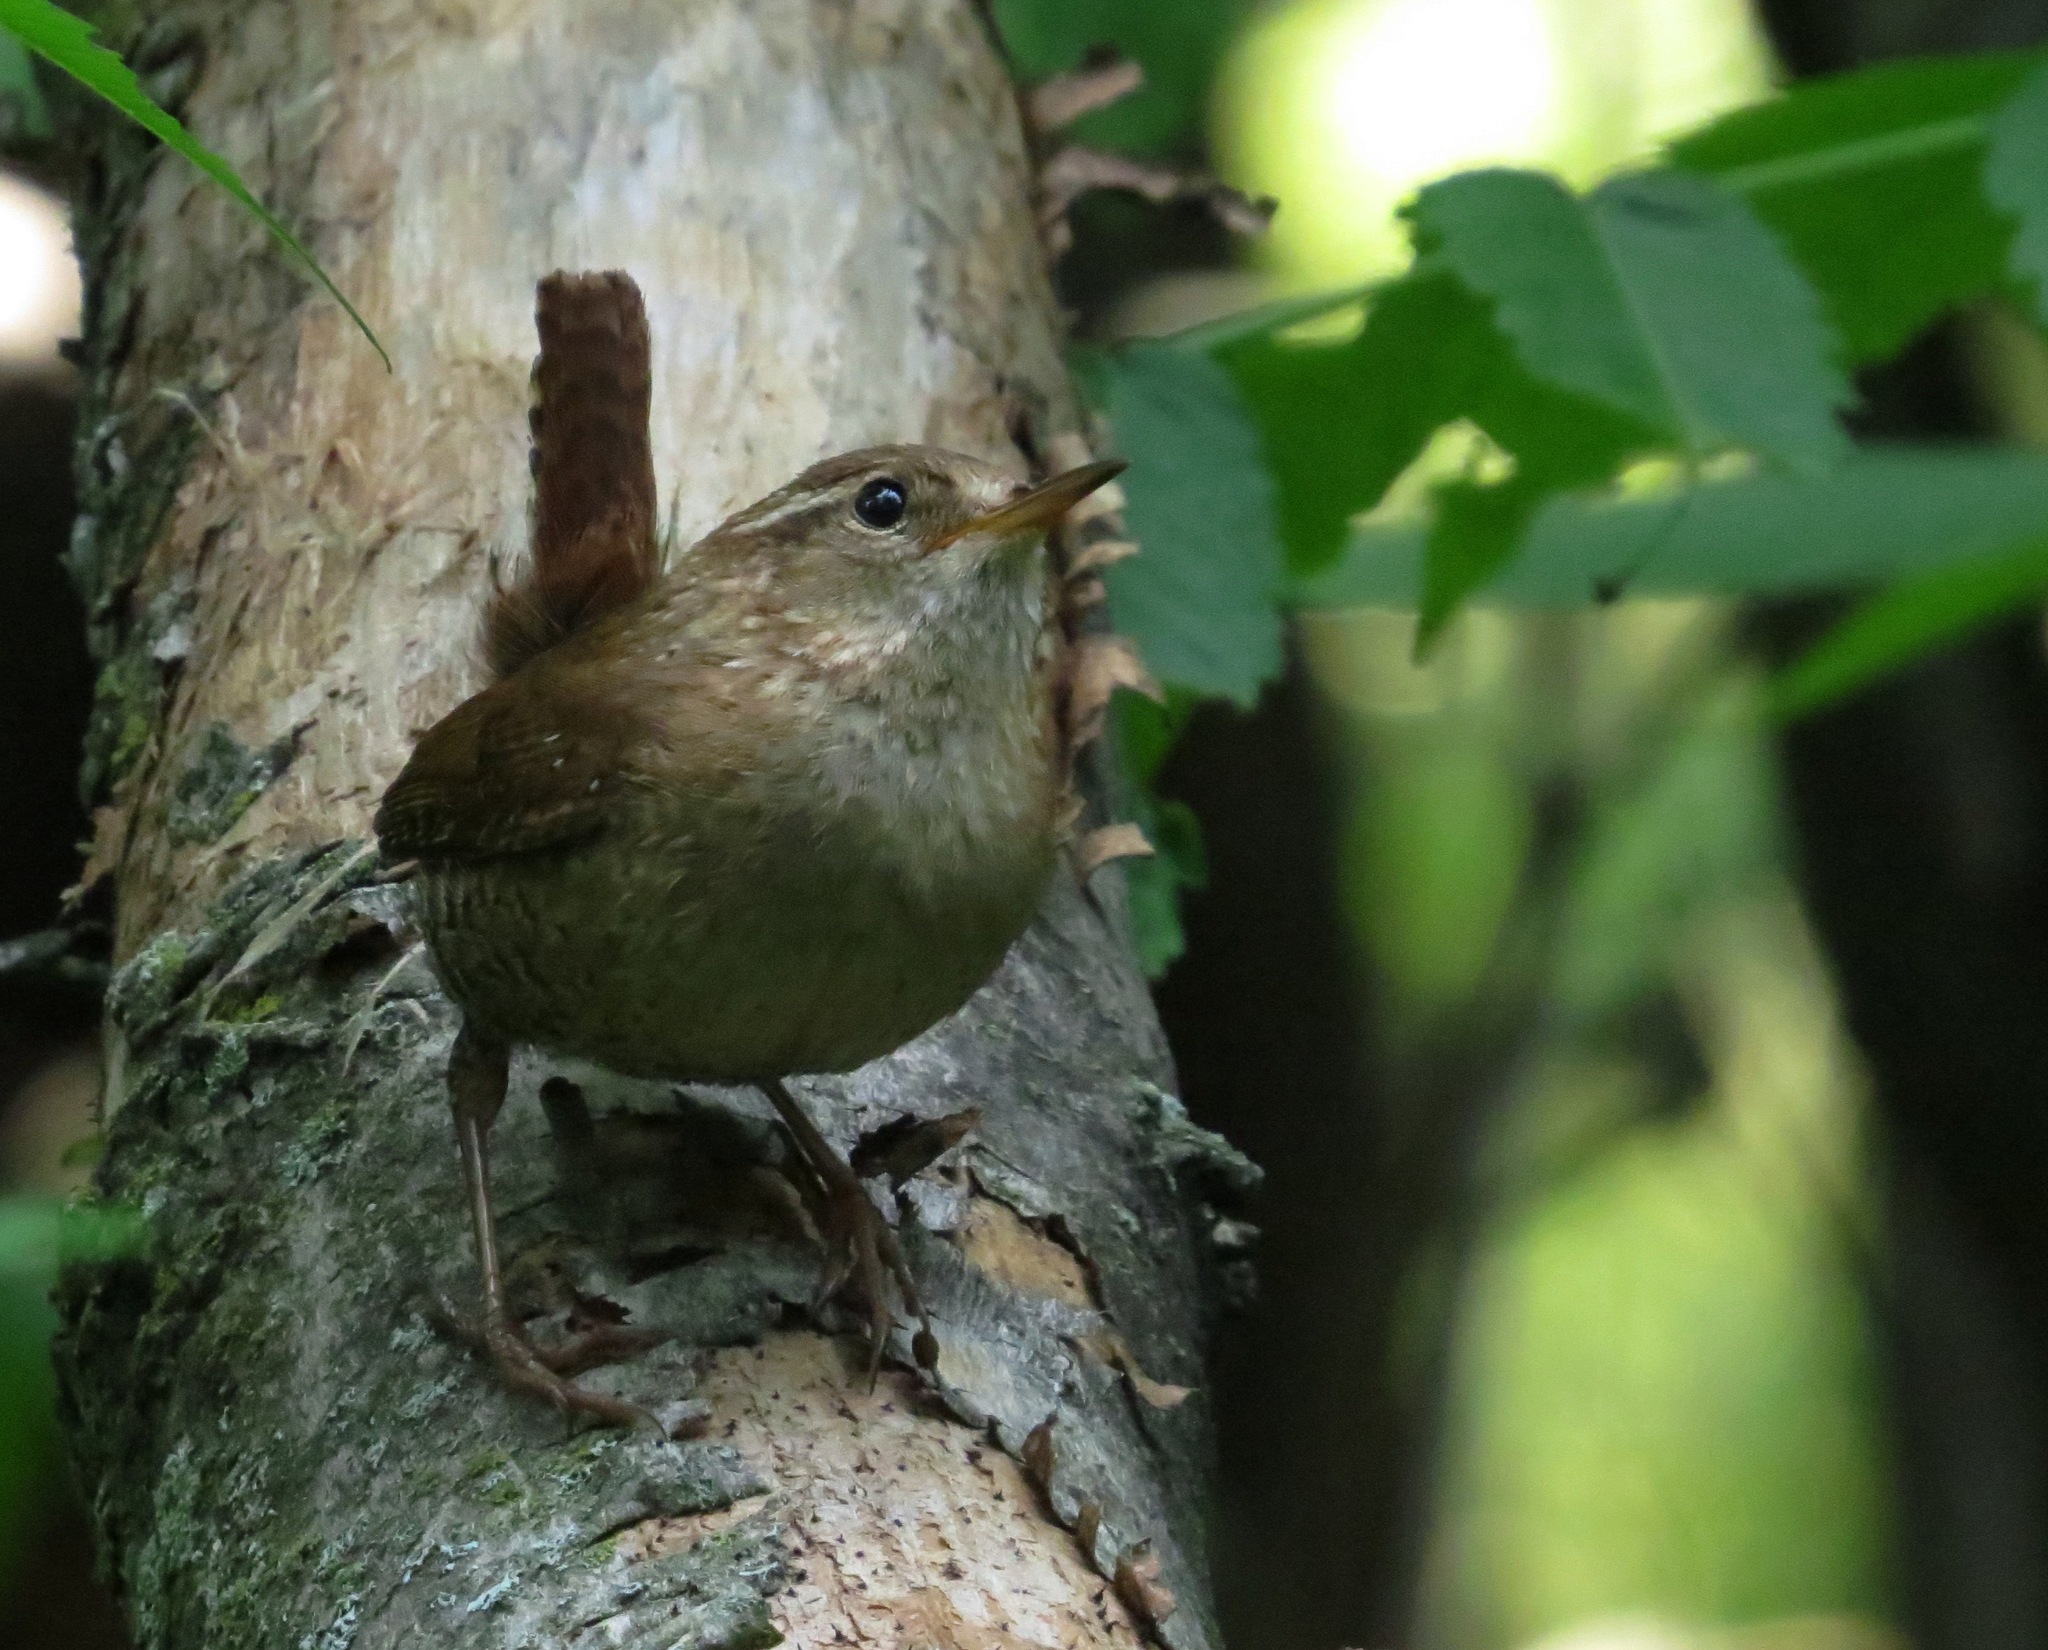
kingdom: Animalia
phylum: Chordata
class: Aves
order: Passeriformes
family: Troglodytidae
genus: Troglodytes
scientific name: Troglodytes hiemalis
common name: Winter wren
